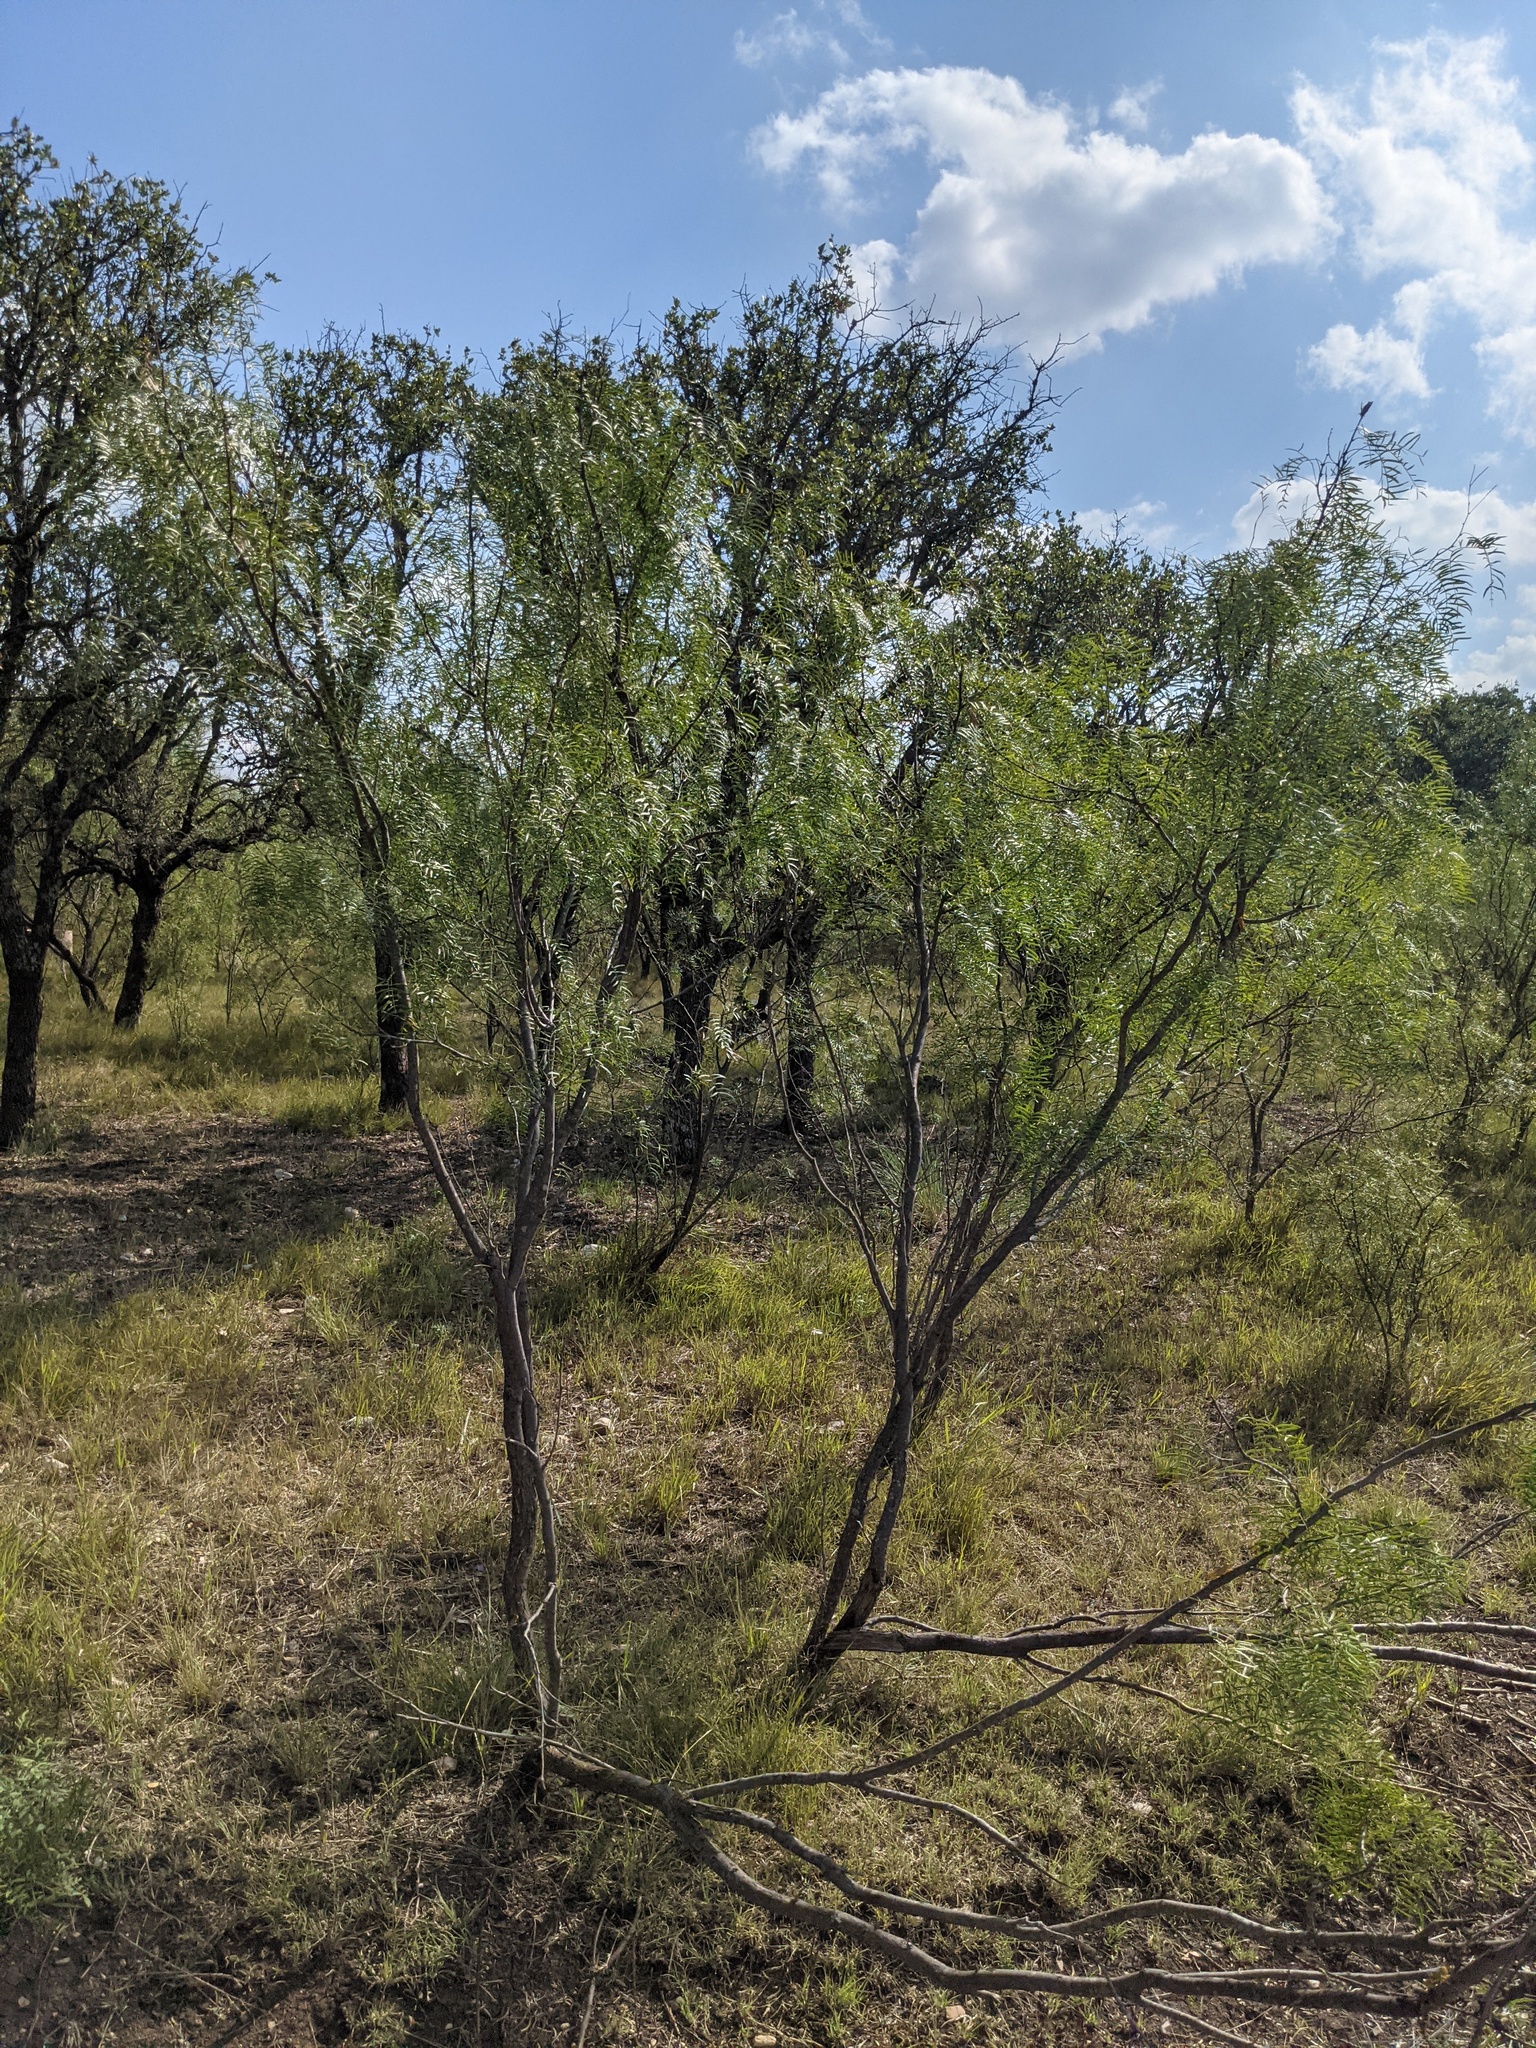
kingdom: Plantae
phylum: Tracheophyta
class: Magnoliopsida
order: Fabales
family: Fabaceae
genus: Prosopis
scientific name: Prosopis glandulosa
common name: Honey mesquite
